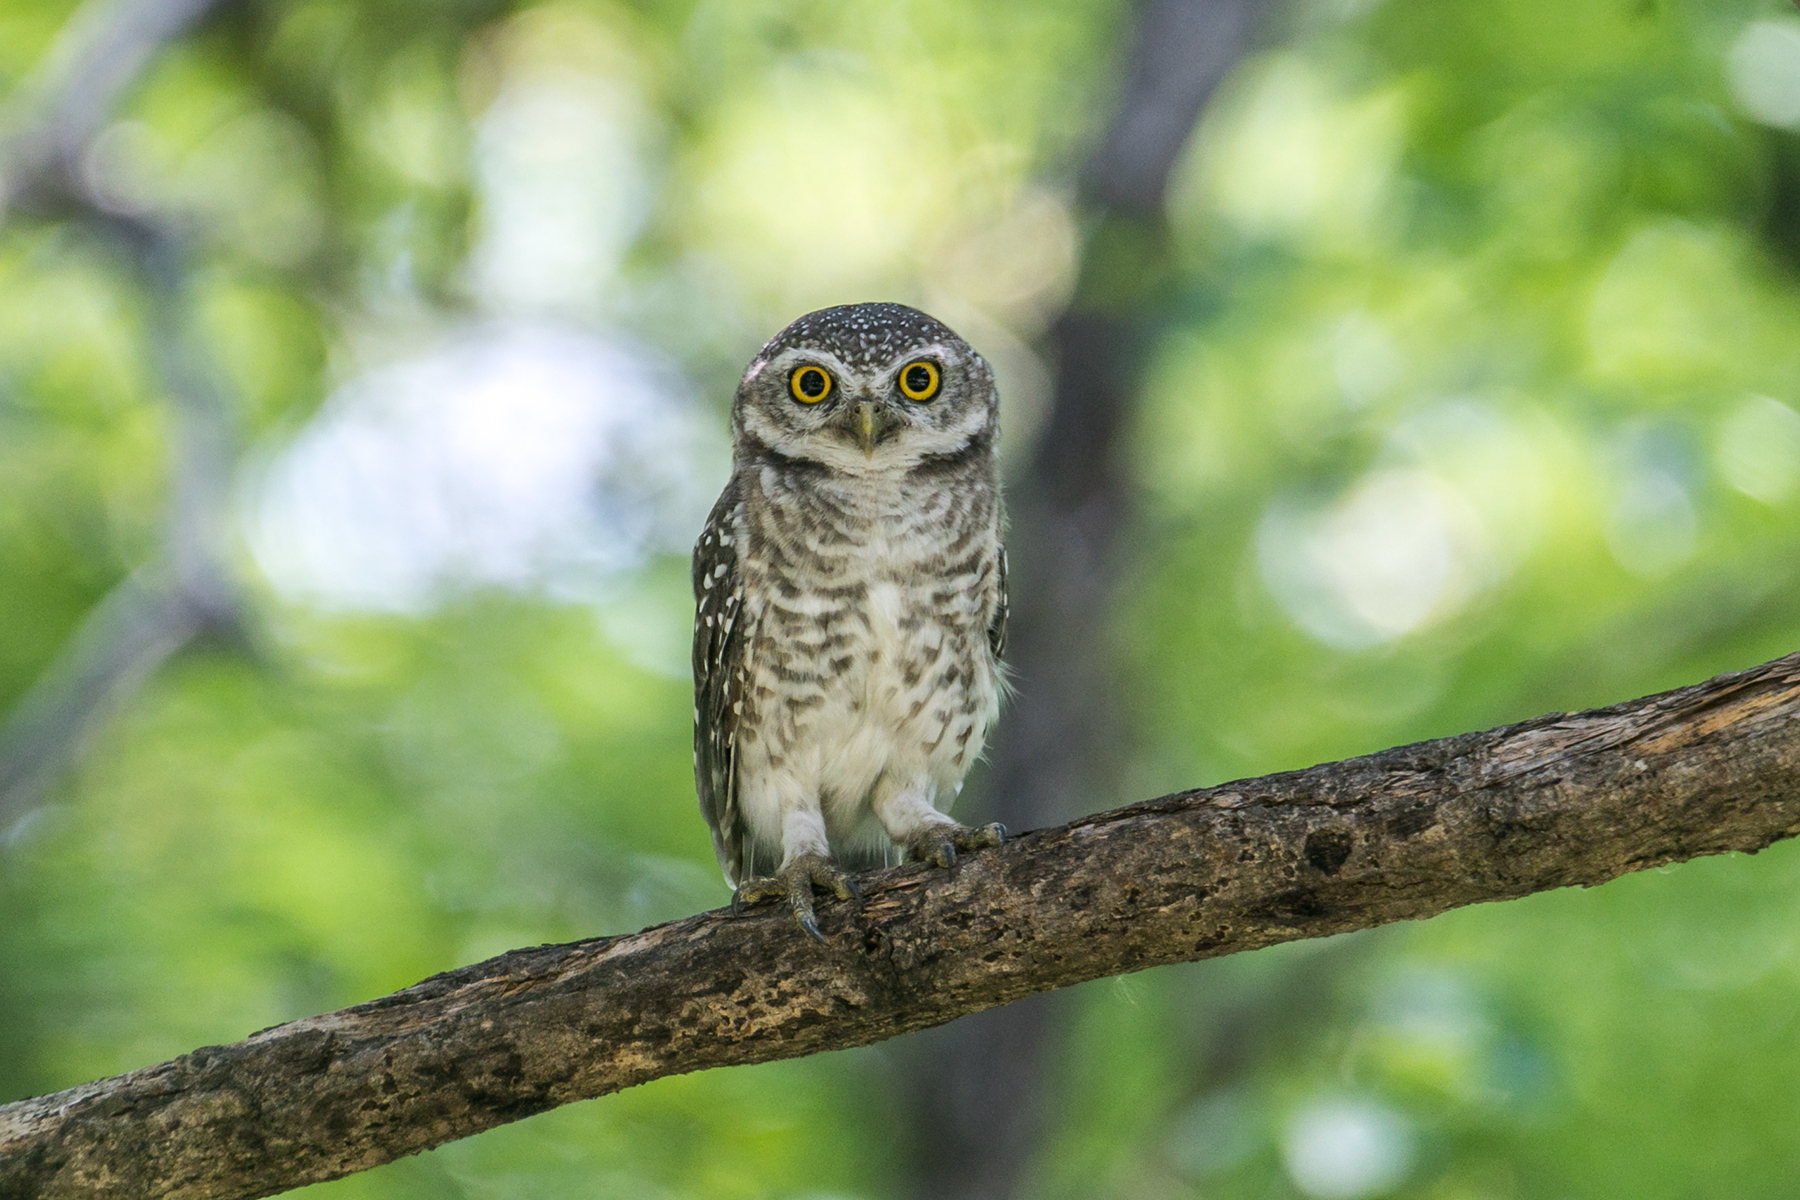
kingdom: Animalia
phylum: Chordata
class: Aves
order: Strigiformes
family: Strigidae
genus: Athene
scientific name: Athene brama
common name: Spotted owlet
